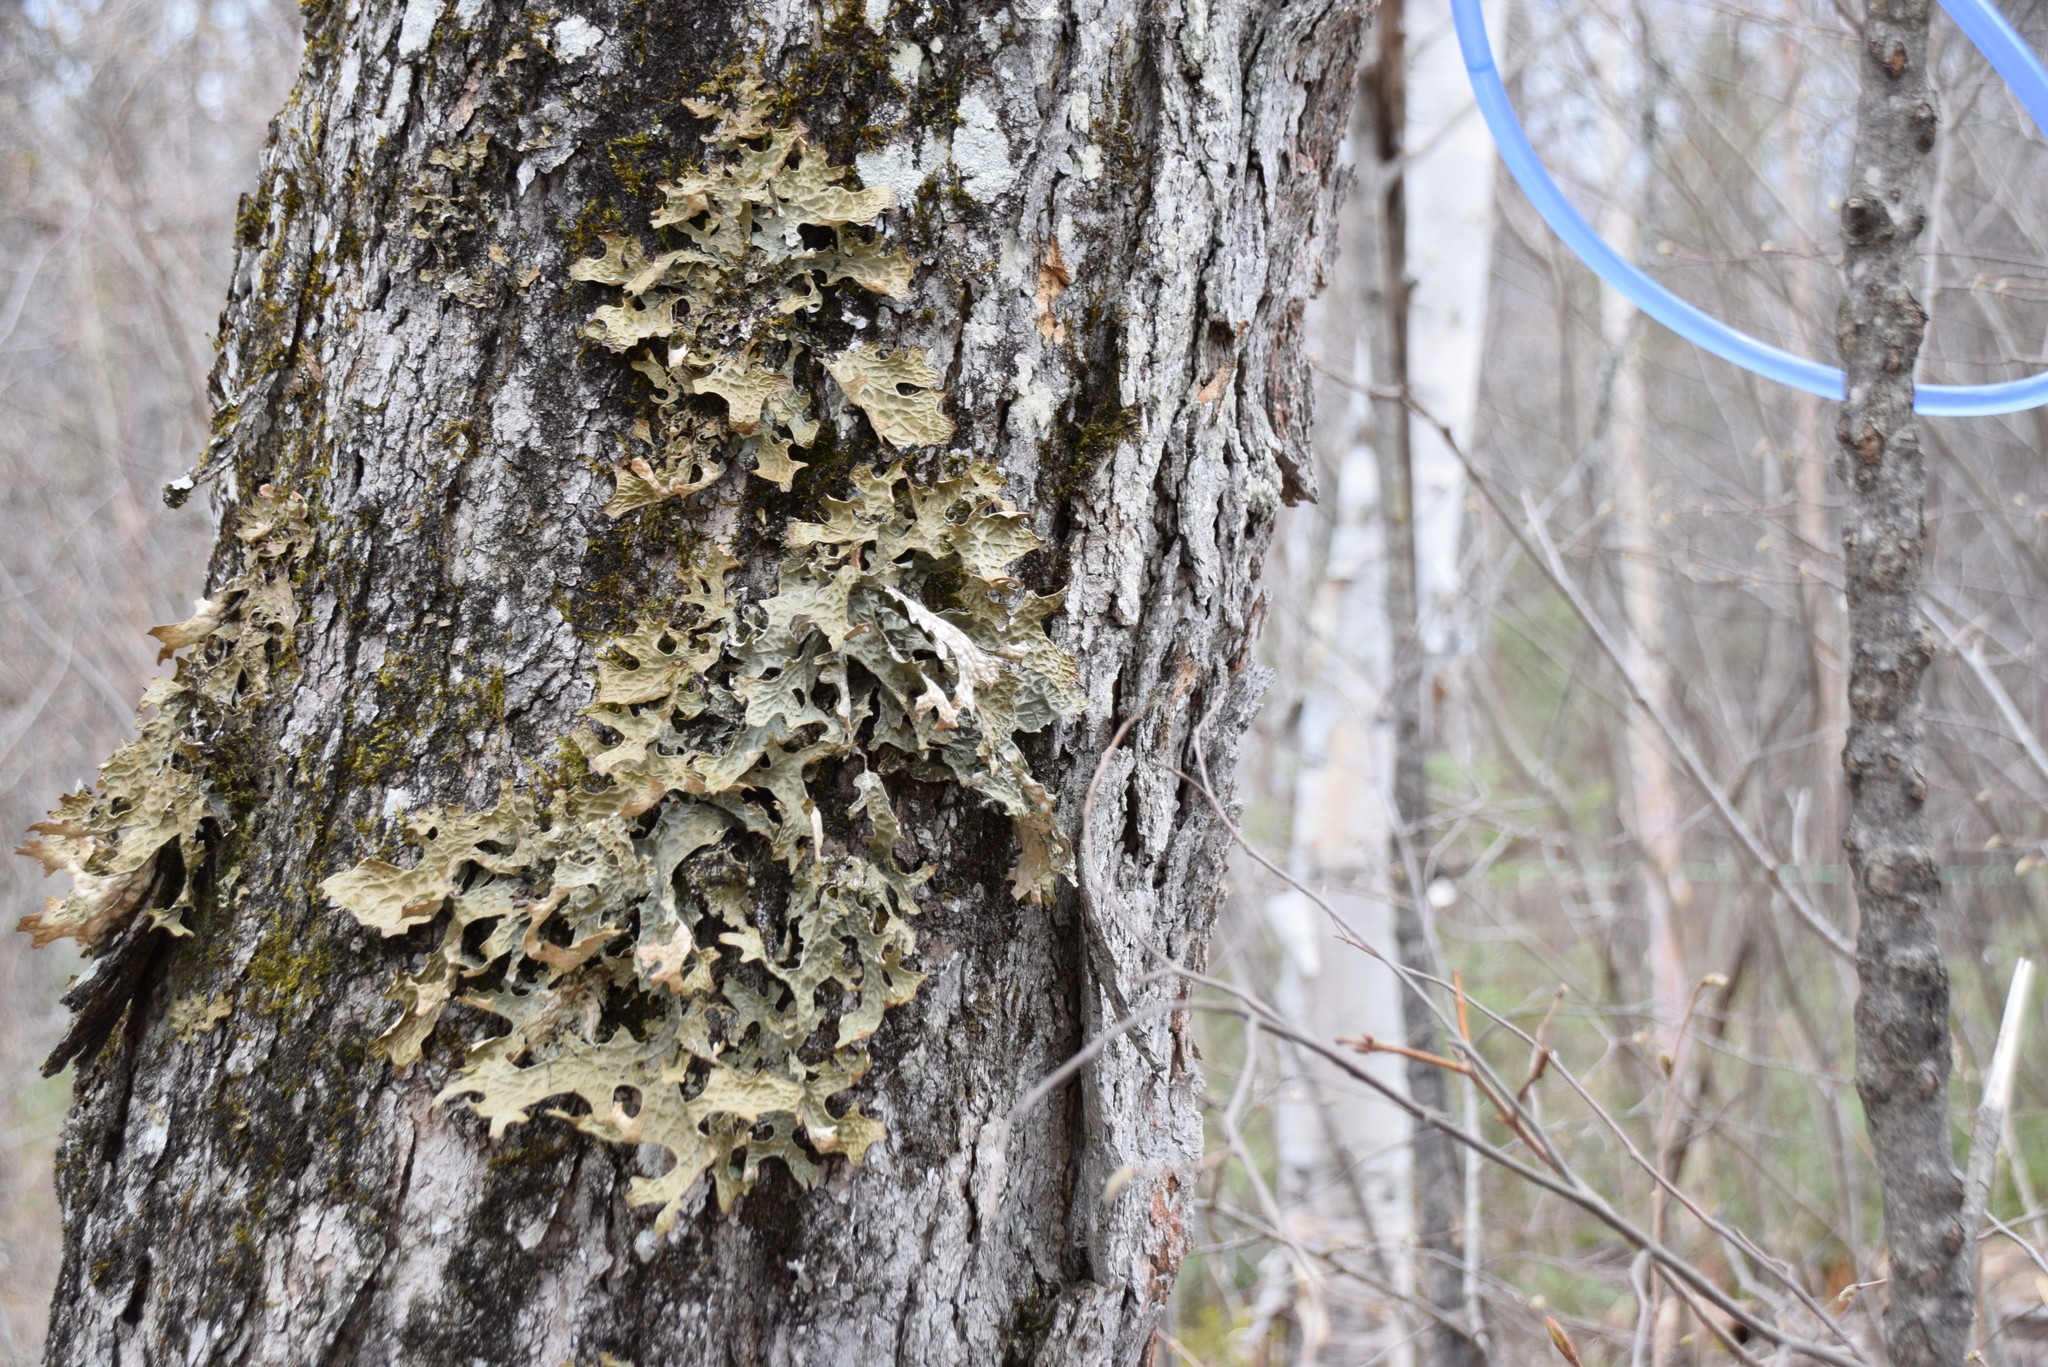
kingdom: Fungi
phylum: Ascomycota
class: Lecanoromycetes
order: Peltigerales
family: Lobariaceae
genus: Lobaria
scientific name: Lobaria pulmonaria
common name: Lungwort
